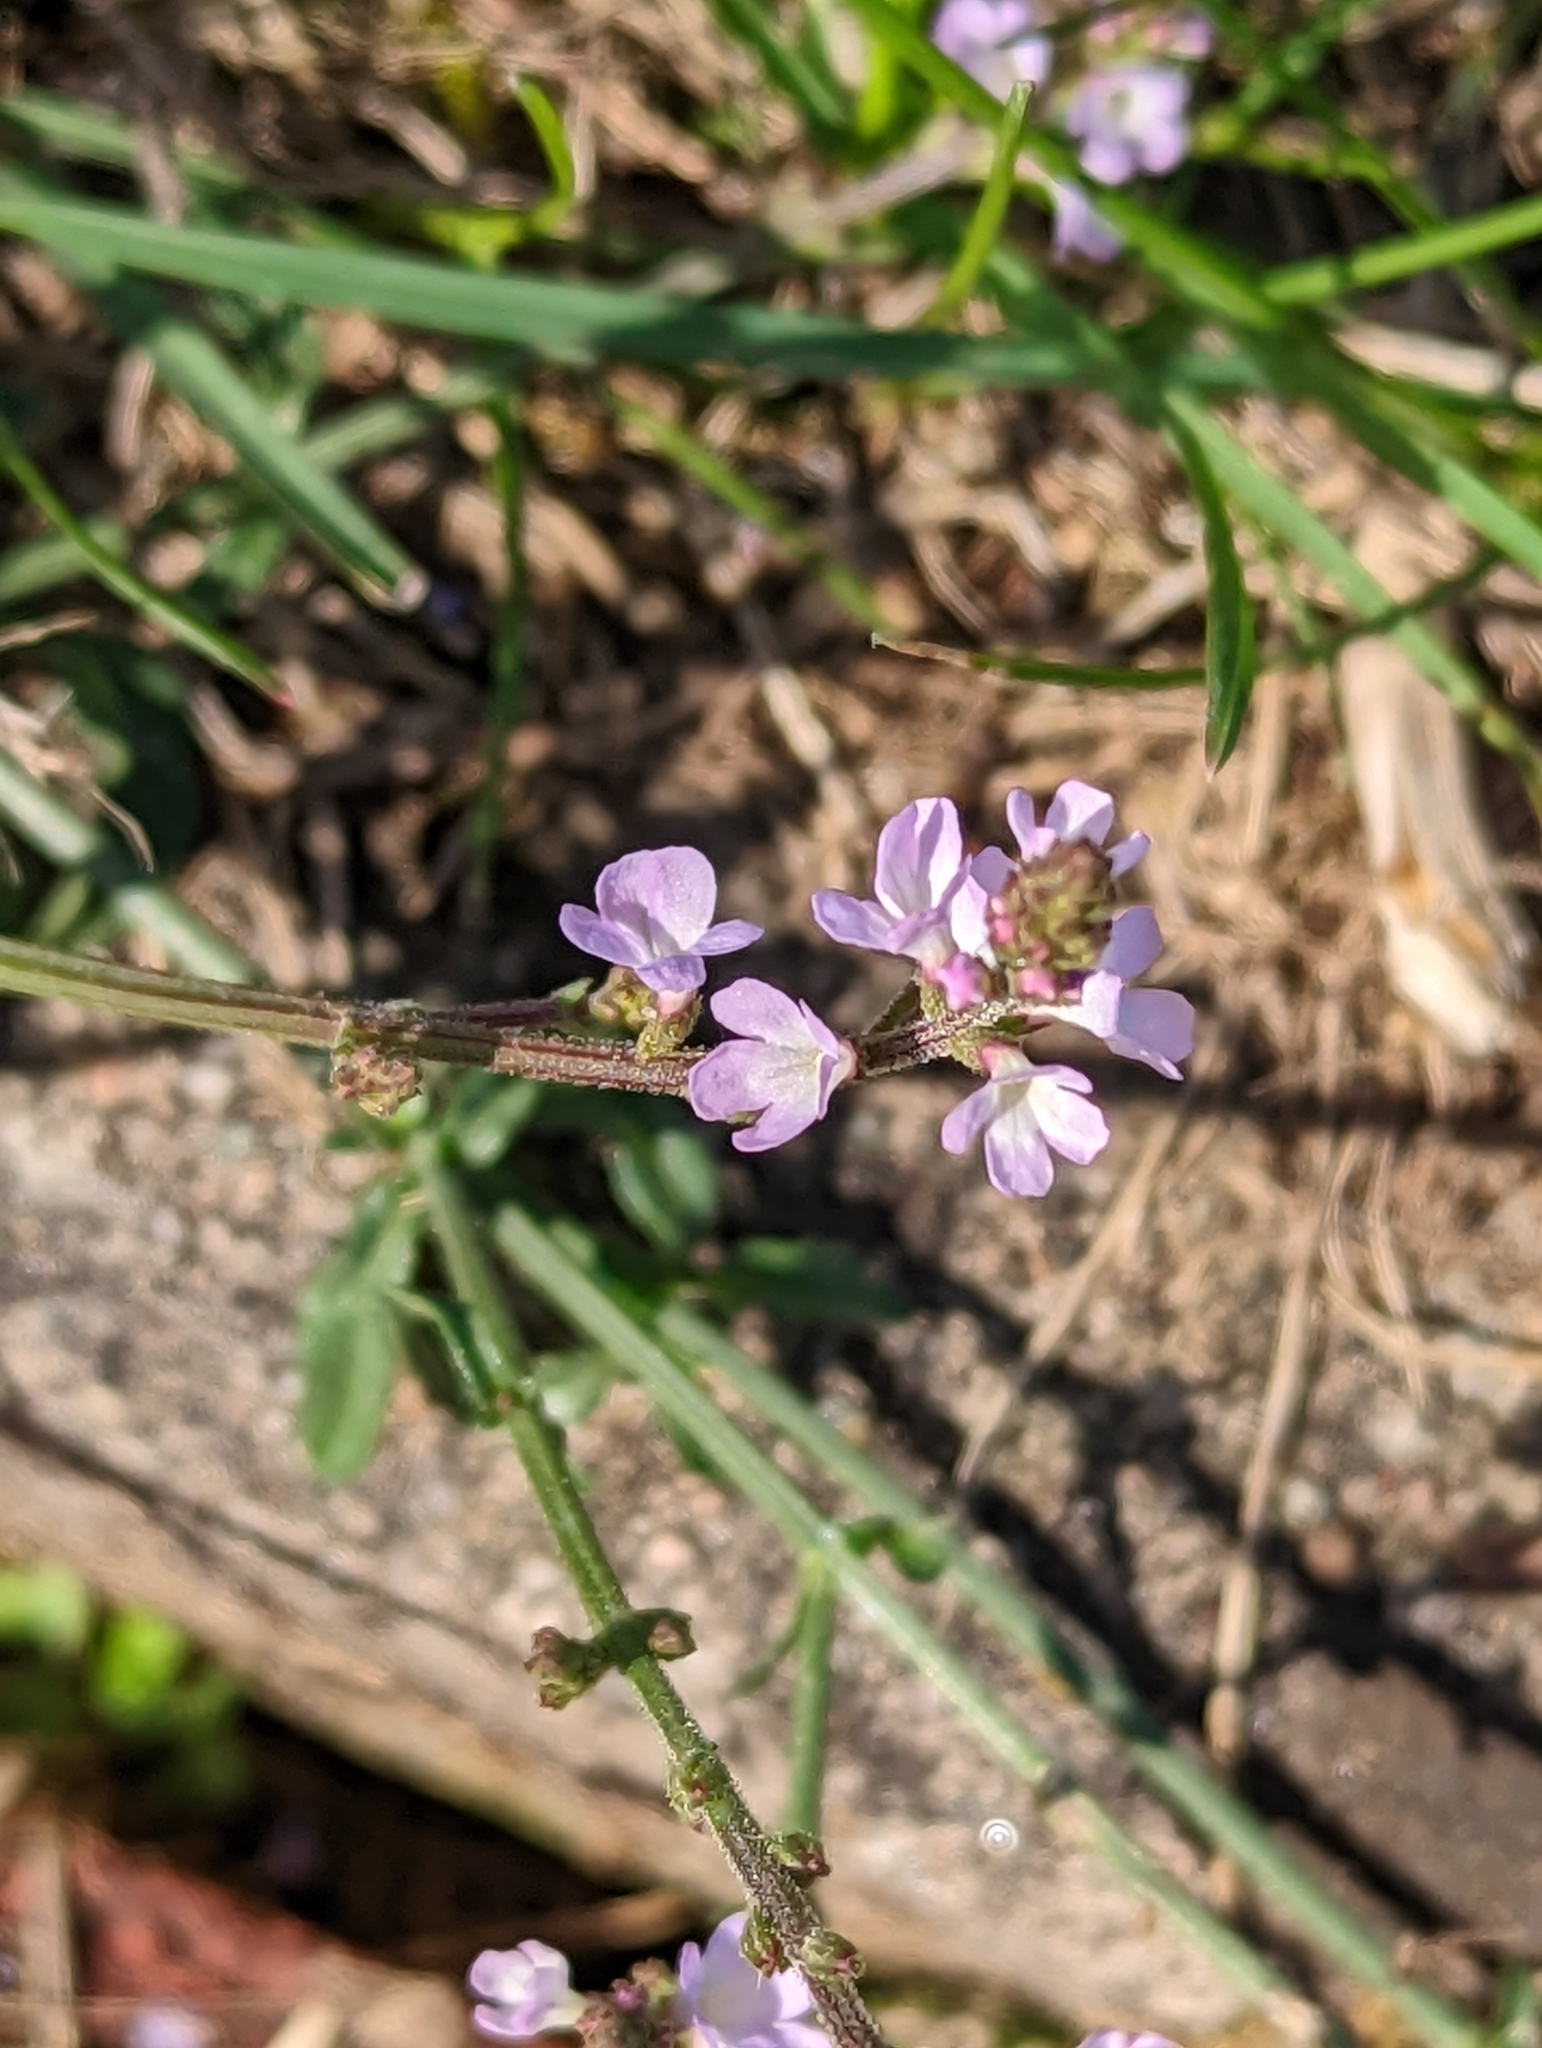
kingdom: Plantae
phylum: Tracheophyta
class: Magnoliopsida
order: Lamiales
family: Verbenaceae
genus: Verbena
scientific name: Verbena officinalis
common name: Vervain
